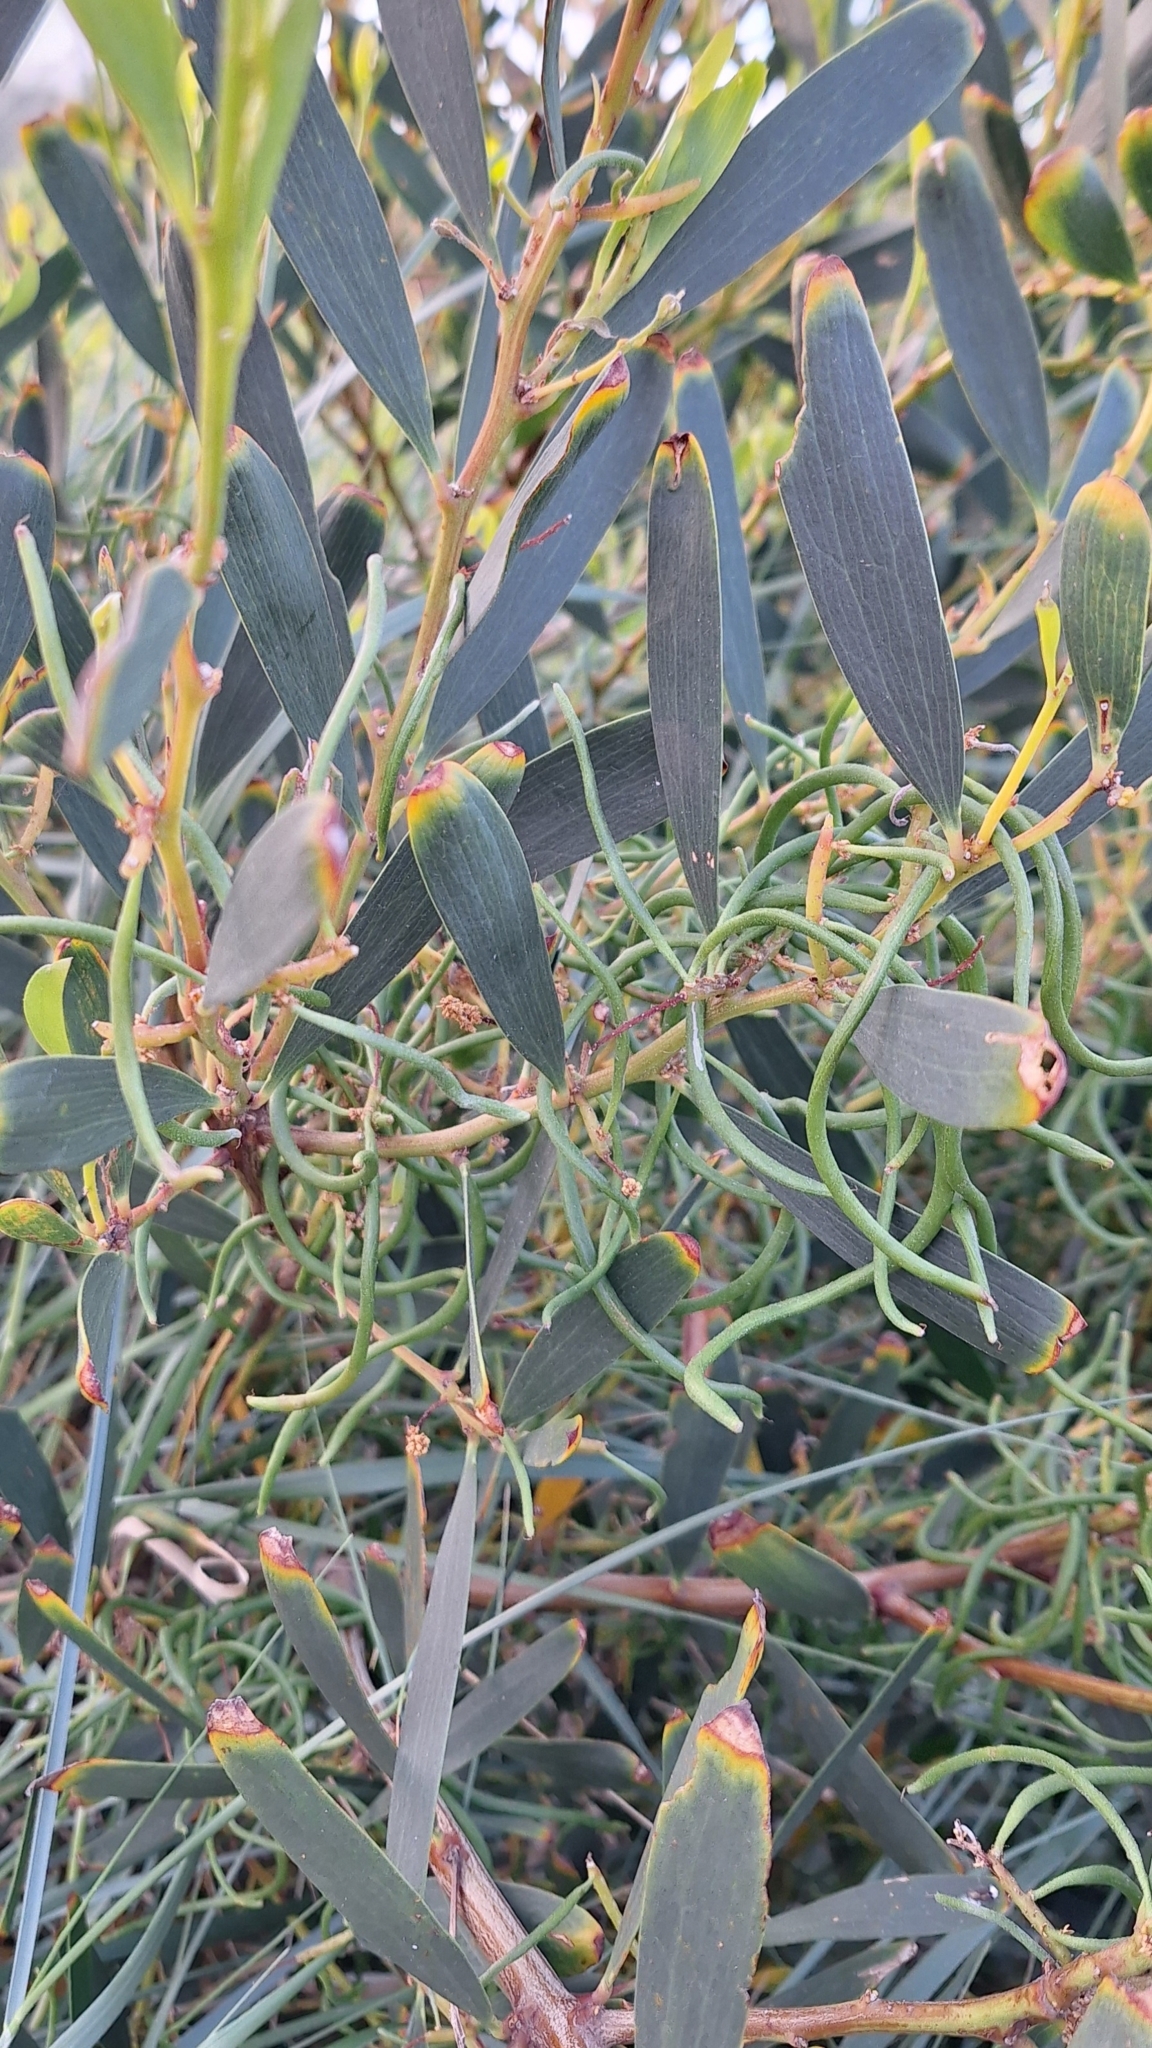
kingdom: Plantae
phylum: Tracheophyta
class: Magnoliopsida
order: Fabales
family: Fabaceae
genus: Acacia
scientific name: Acacia longifolia
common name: Sydney golden wattle
